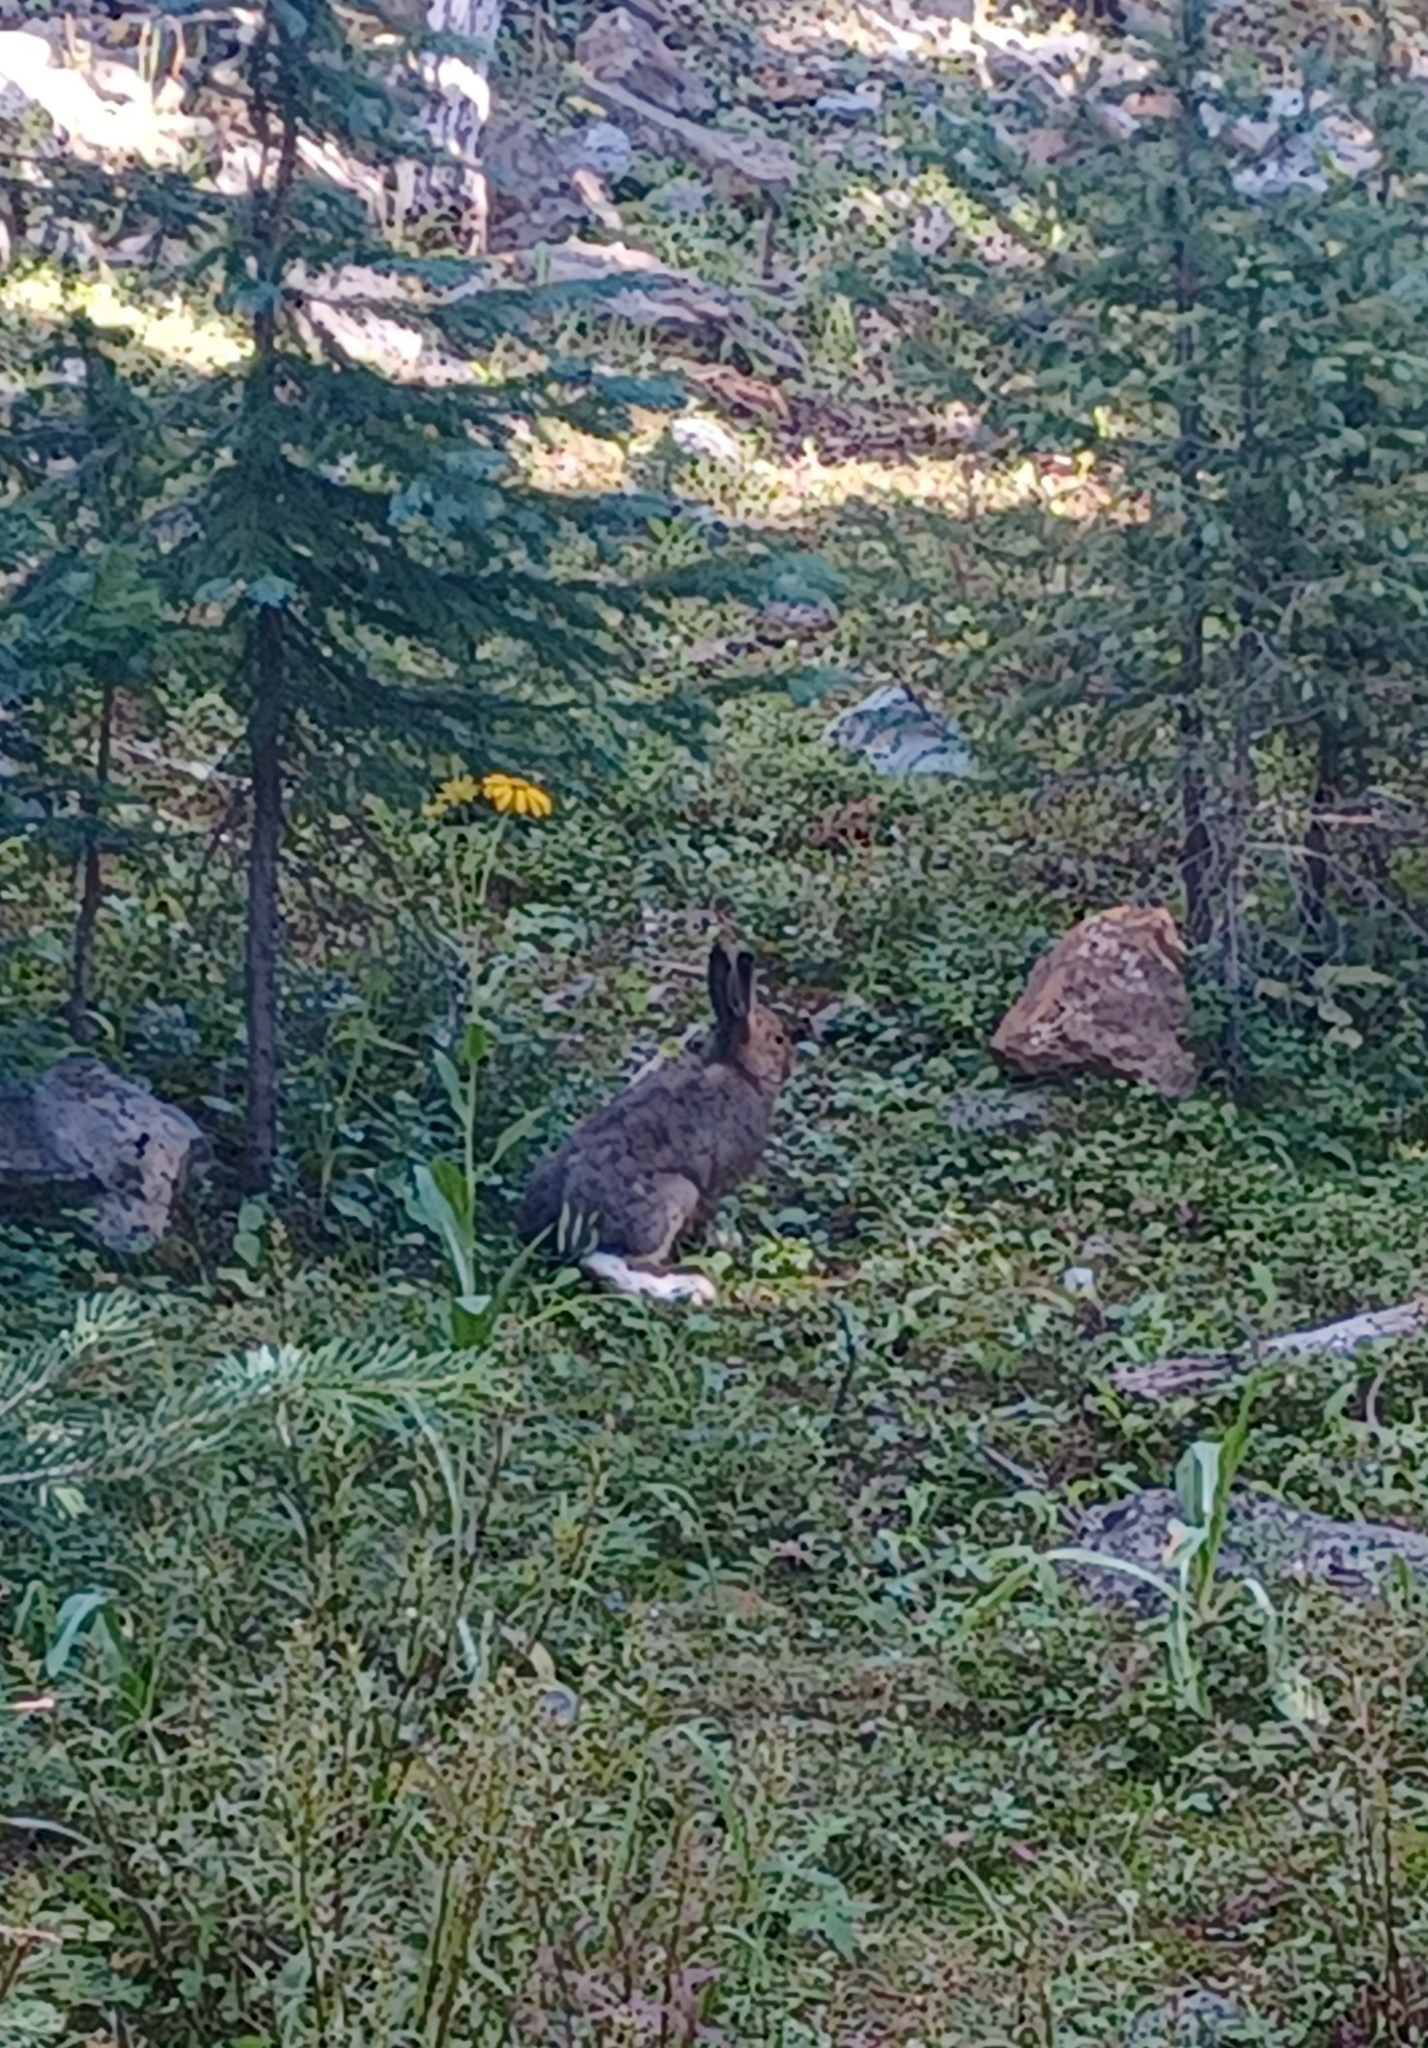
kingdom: Animalia
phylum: Chordata
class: Mammalia
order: Lagomorpha
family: Leporidae
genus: Lepus
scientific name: Lepus americanus
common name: Snowshoe hare
